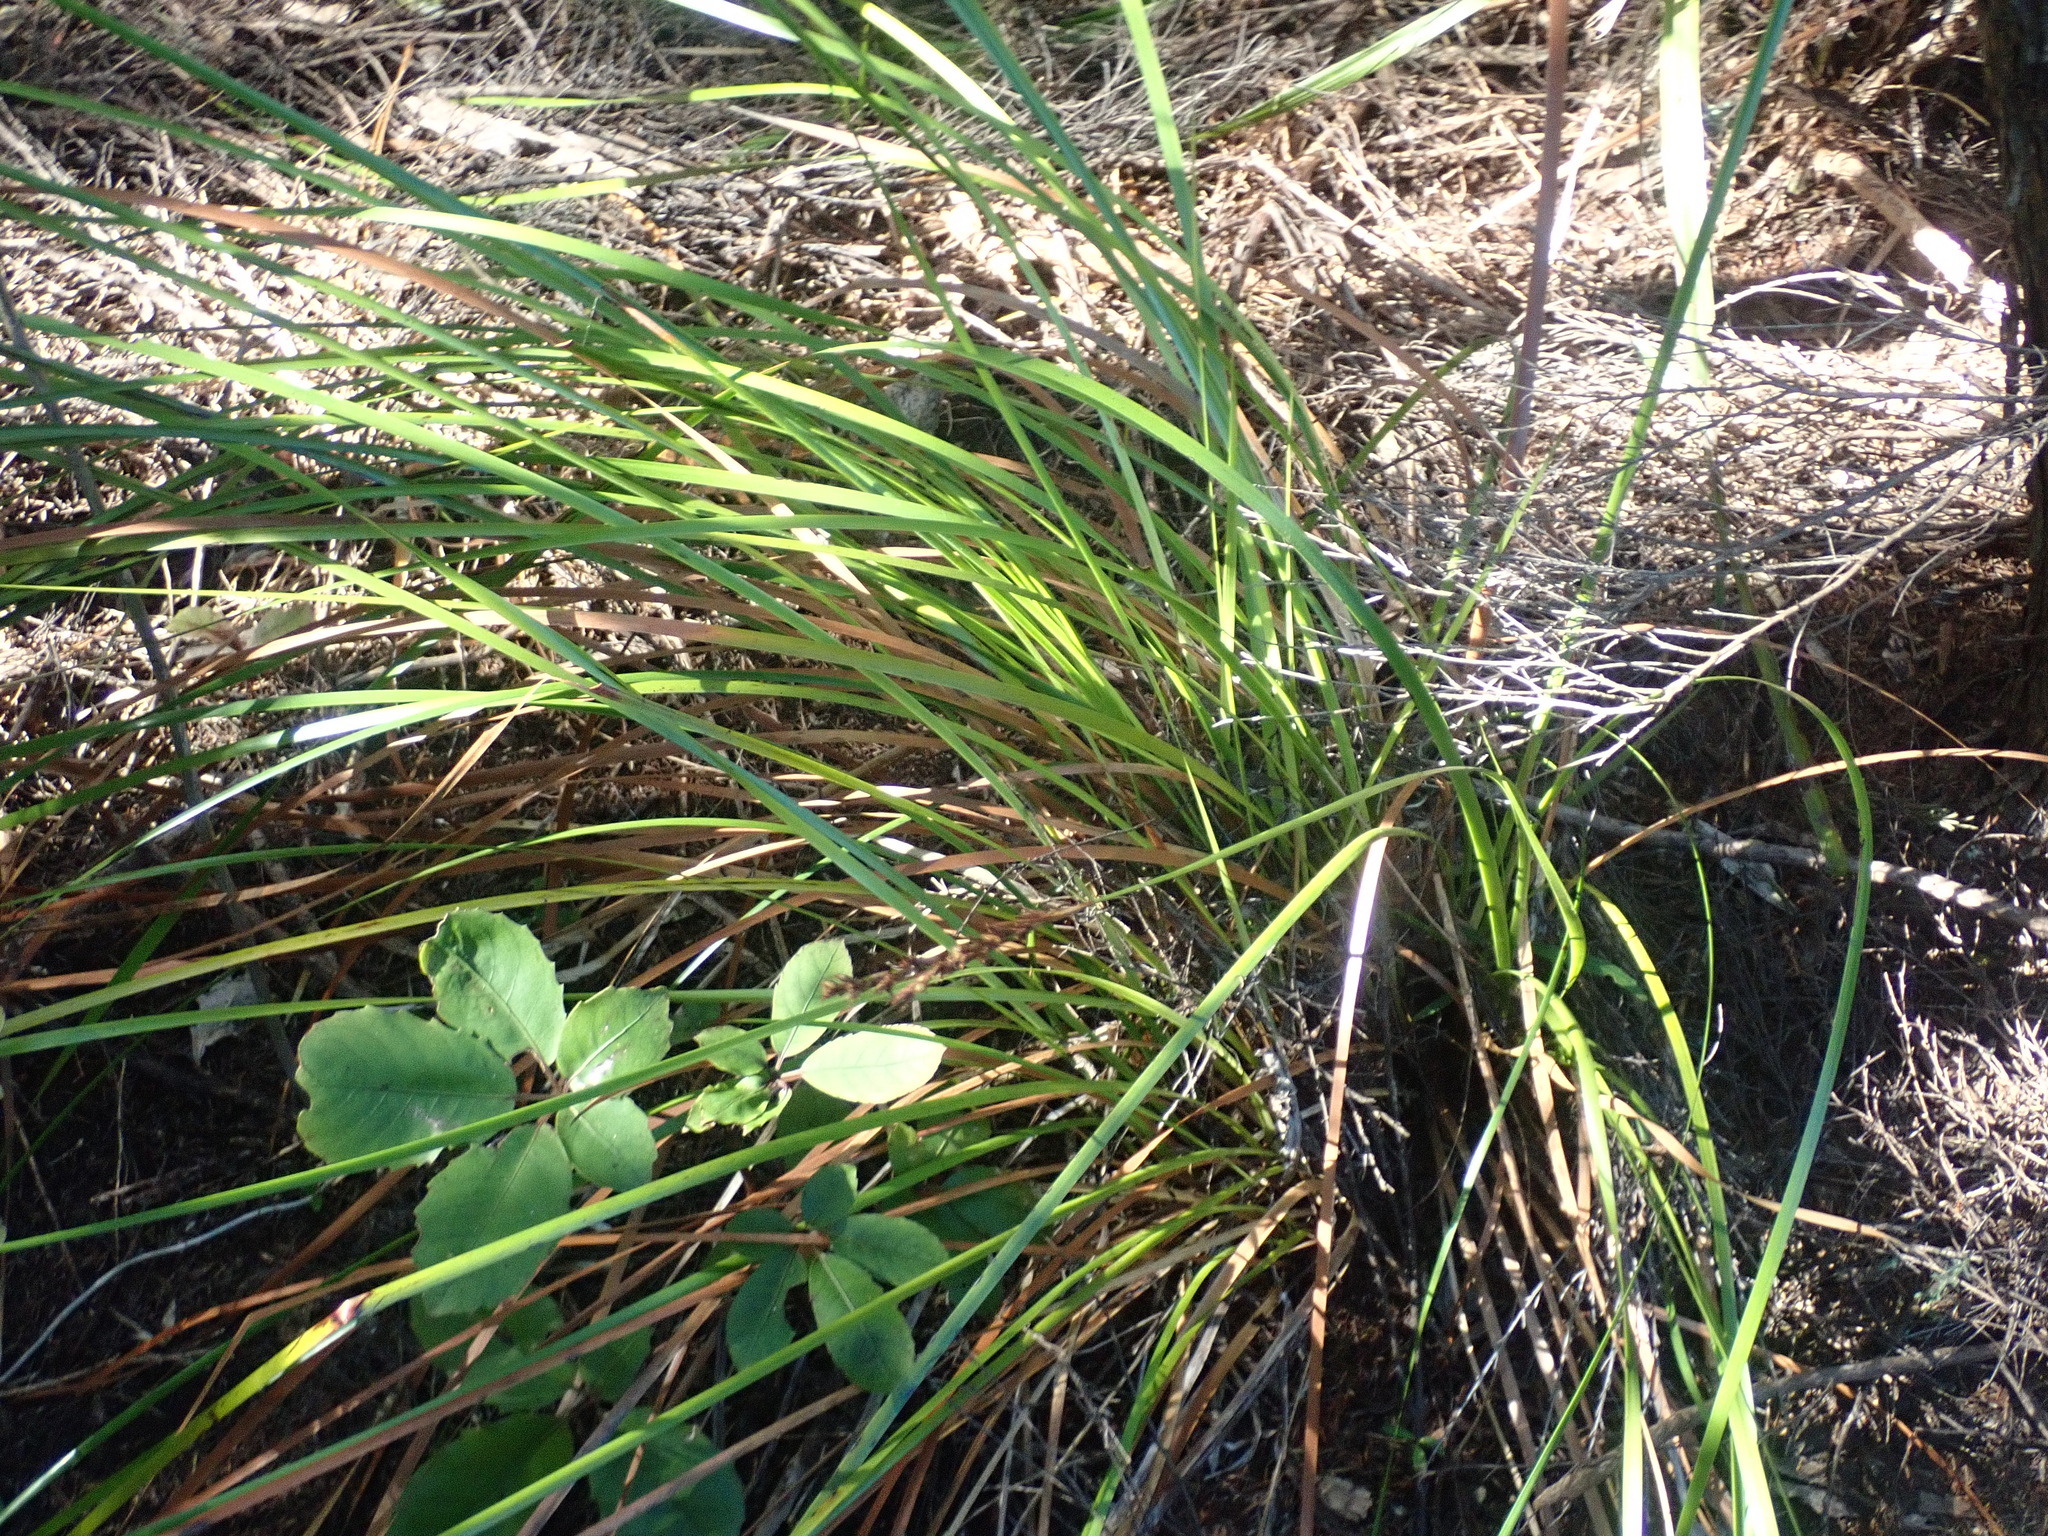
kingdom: Plantae
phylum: Tracheophyta
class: Magnoliopsida
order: Apiales
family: Araliaceae
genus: Neopanax
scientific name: Neopanax arboreus
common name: Five-fingers
